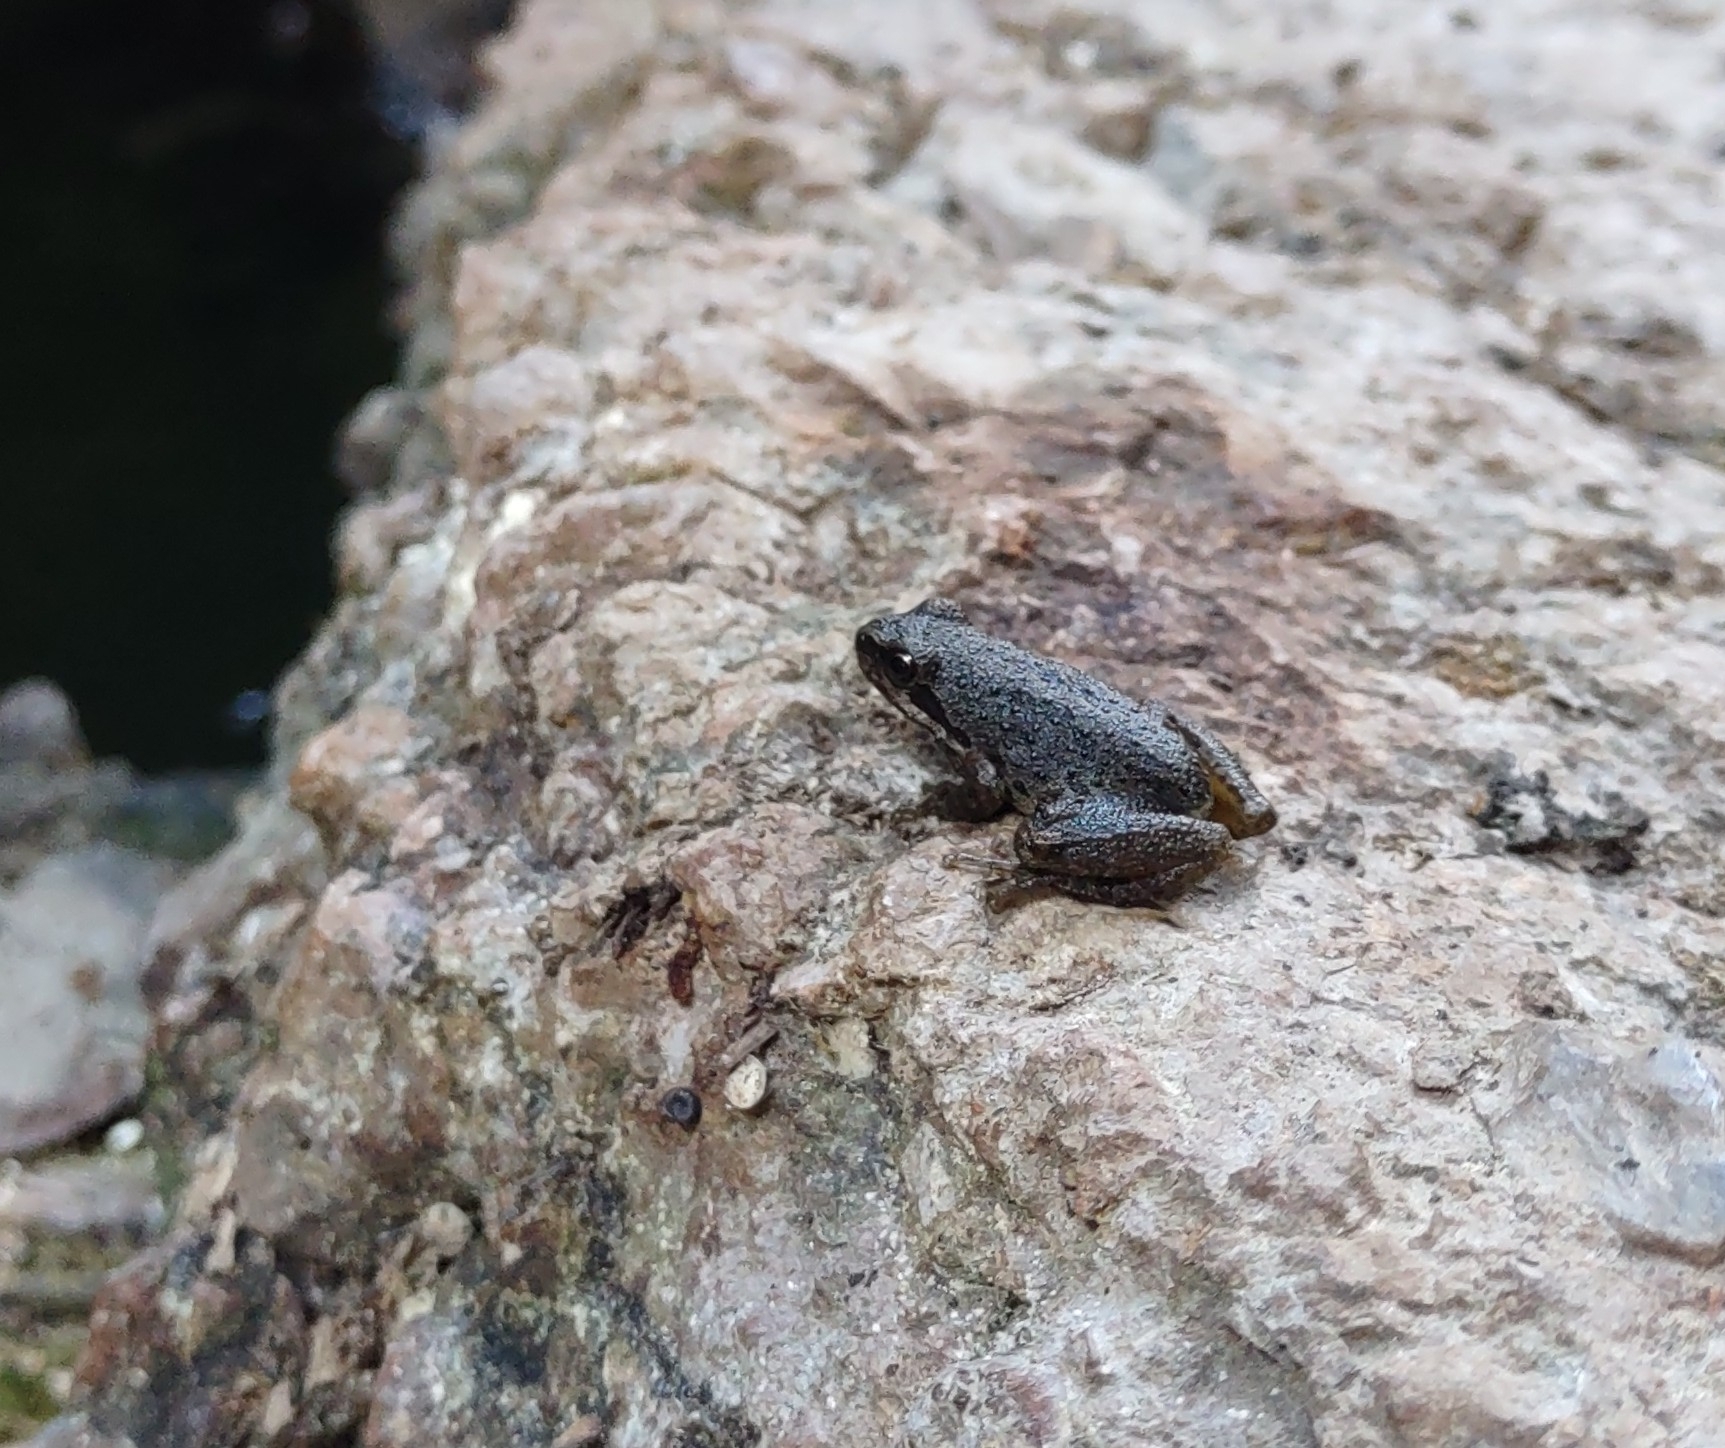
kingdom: Animalia
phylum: Chordata
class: Amphibia
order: Anura
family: Hylidae
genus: Pseudacris
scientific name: Pseudacris regilla
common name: Pacific chorus frog
